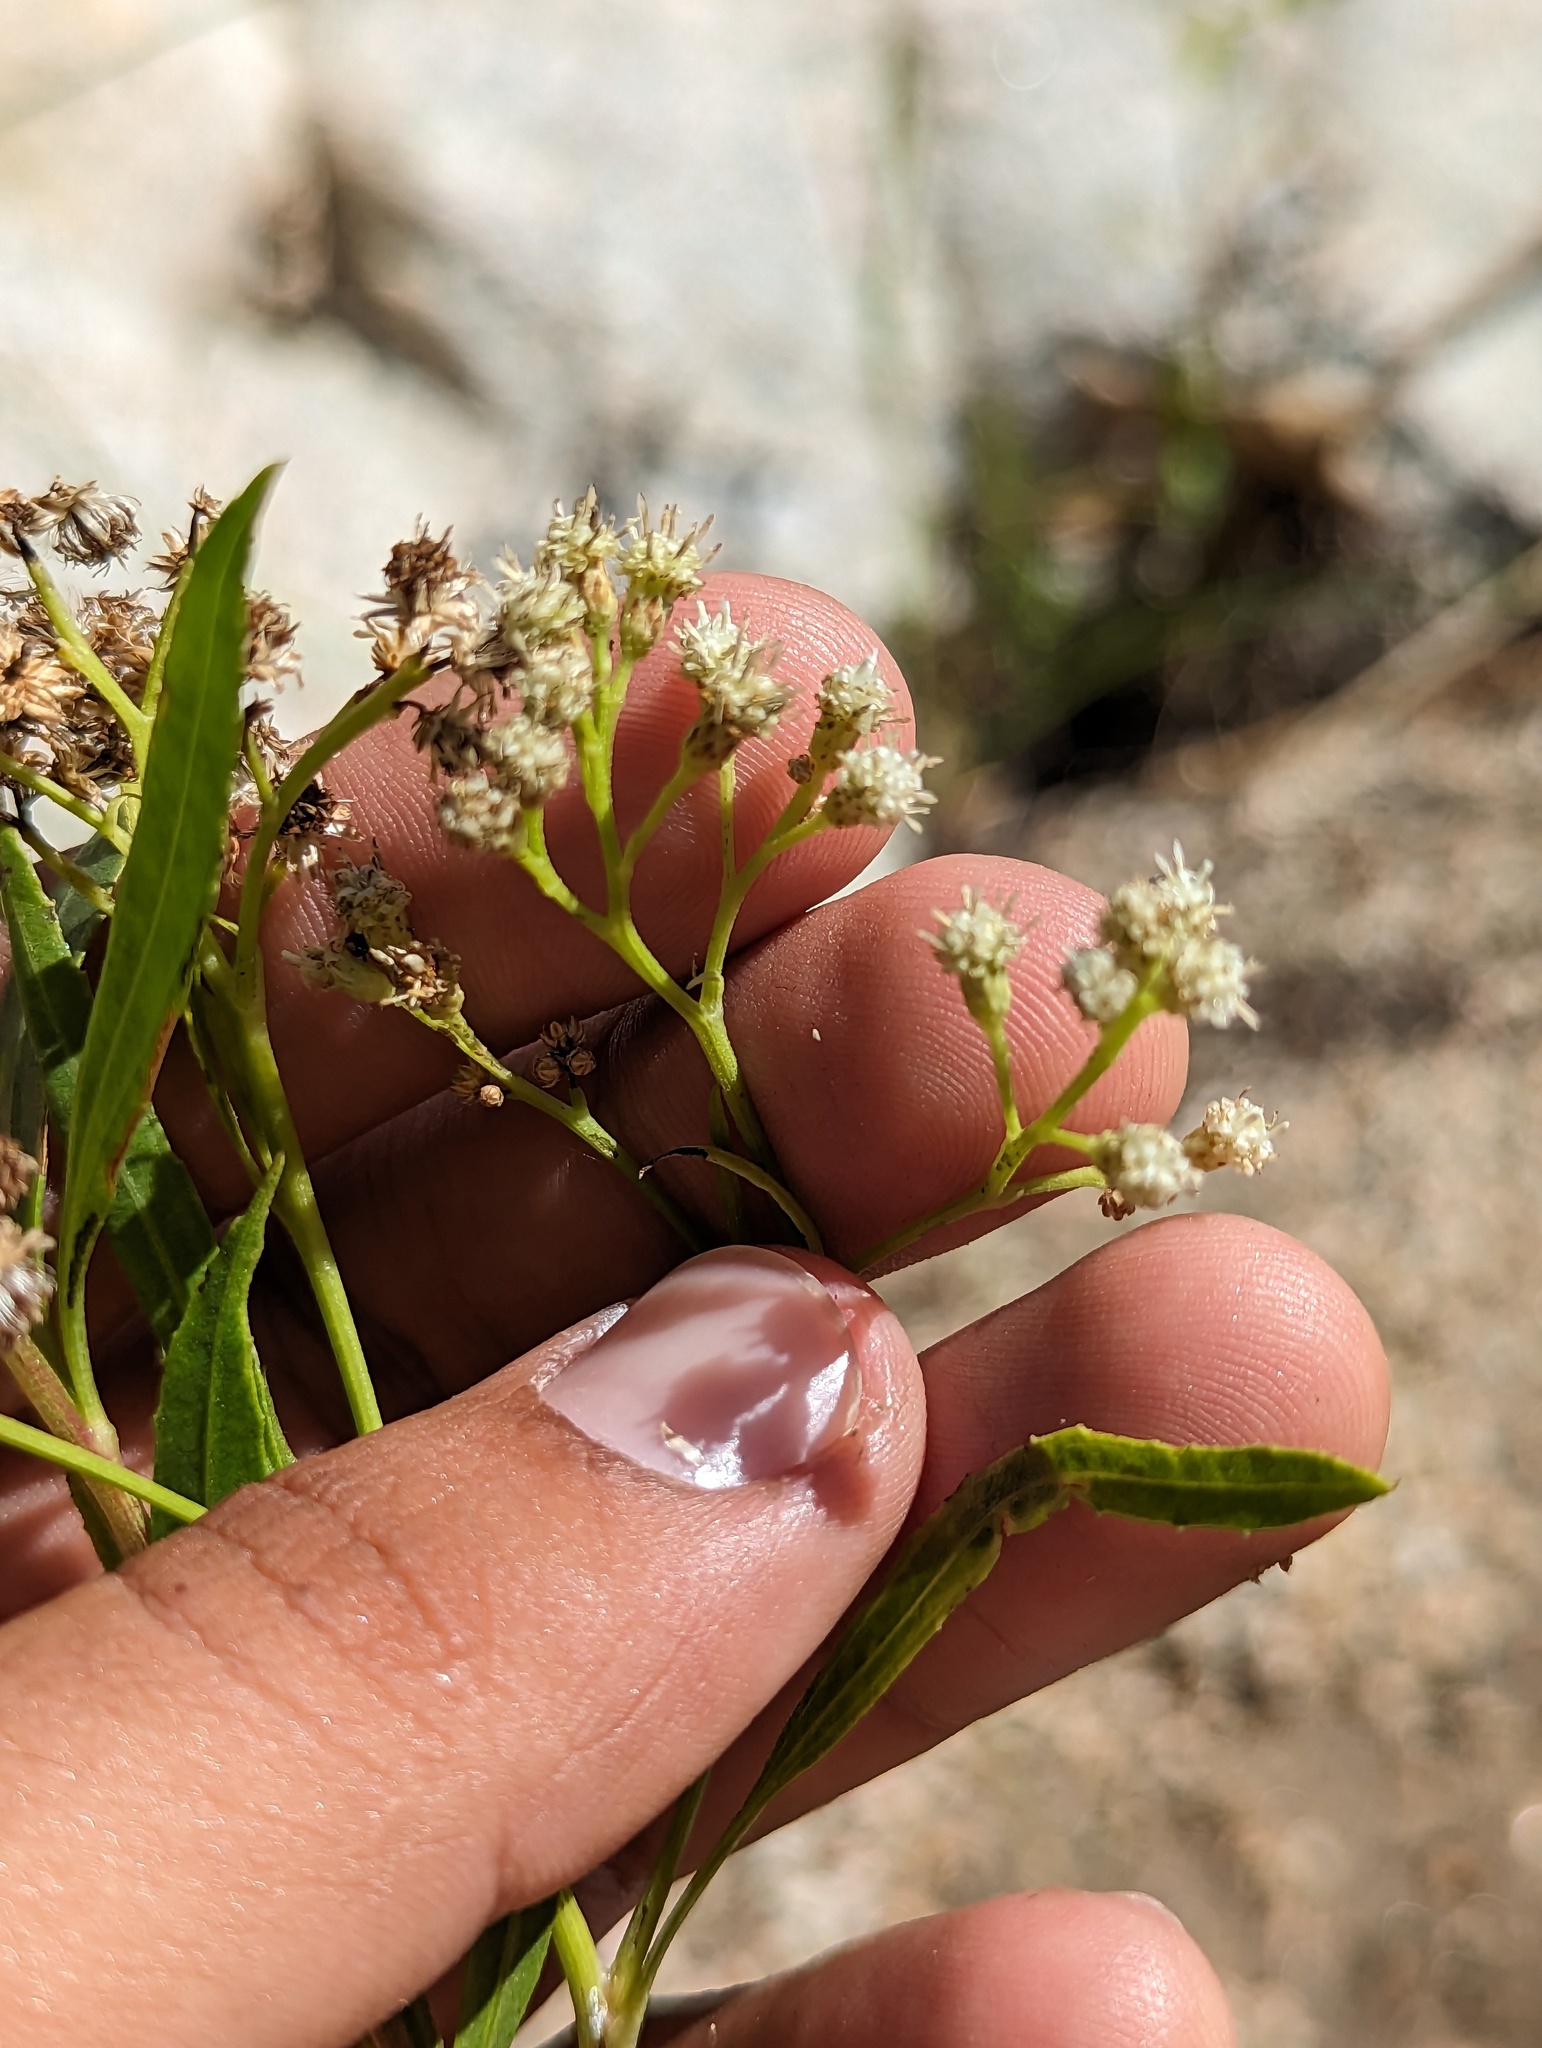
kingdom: Plantae
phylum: Tracheophyta
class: Magnoliopsida
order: Asterales
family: Asteraceae
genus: Baccharis
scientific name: Baccharis salicifolia
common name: Sticky baccharis
